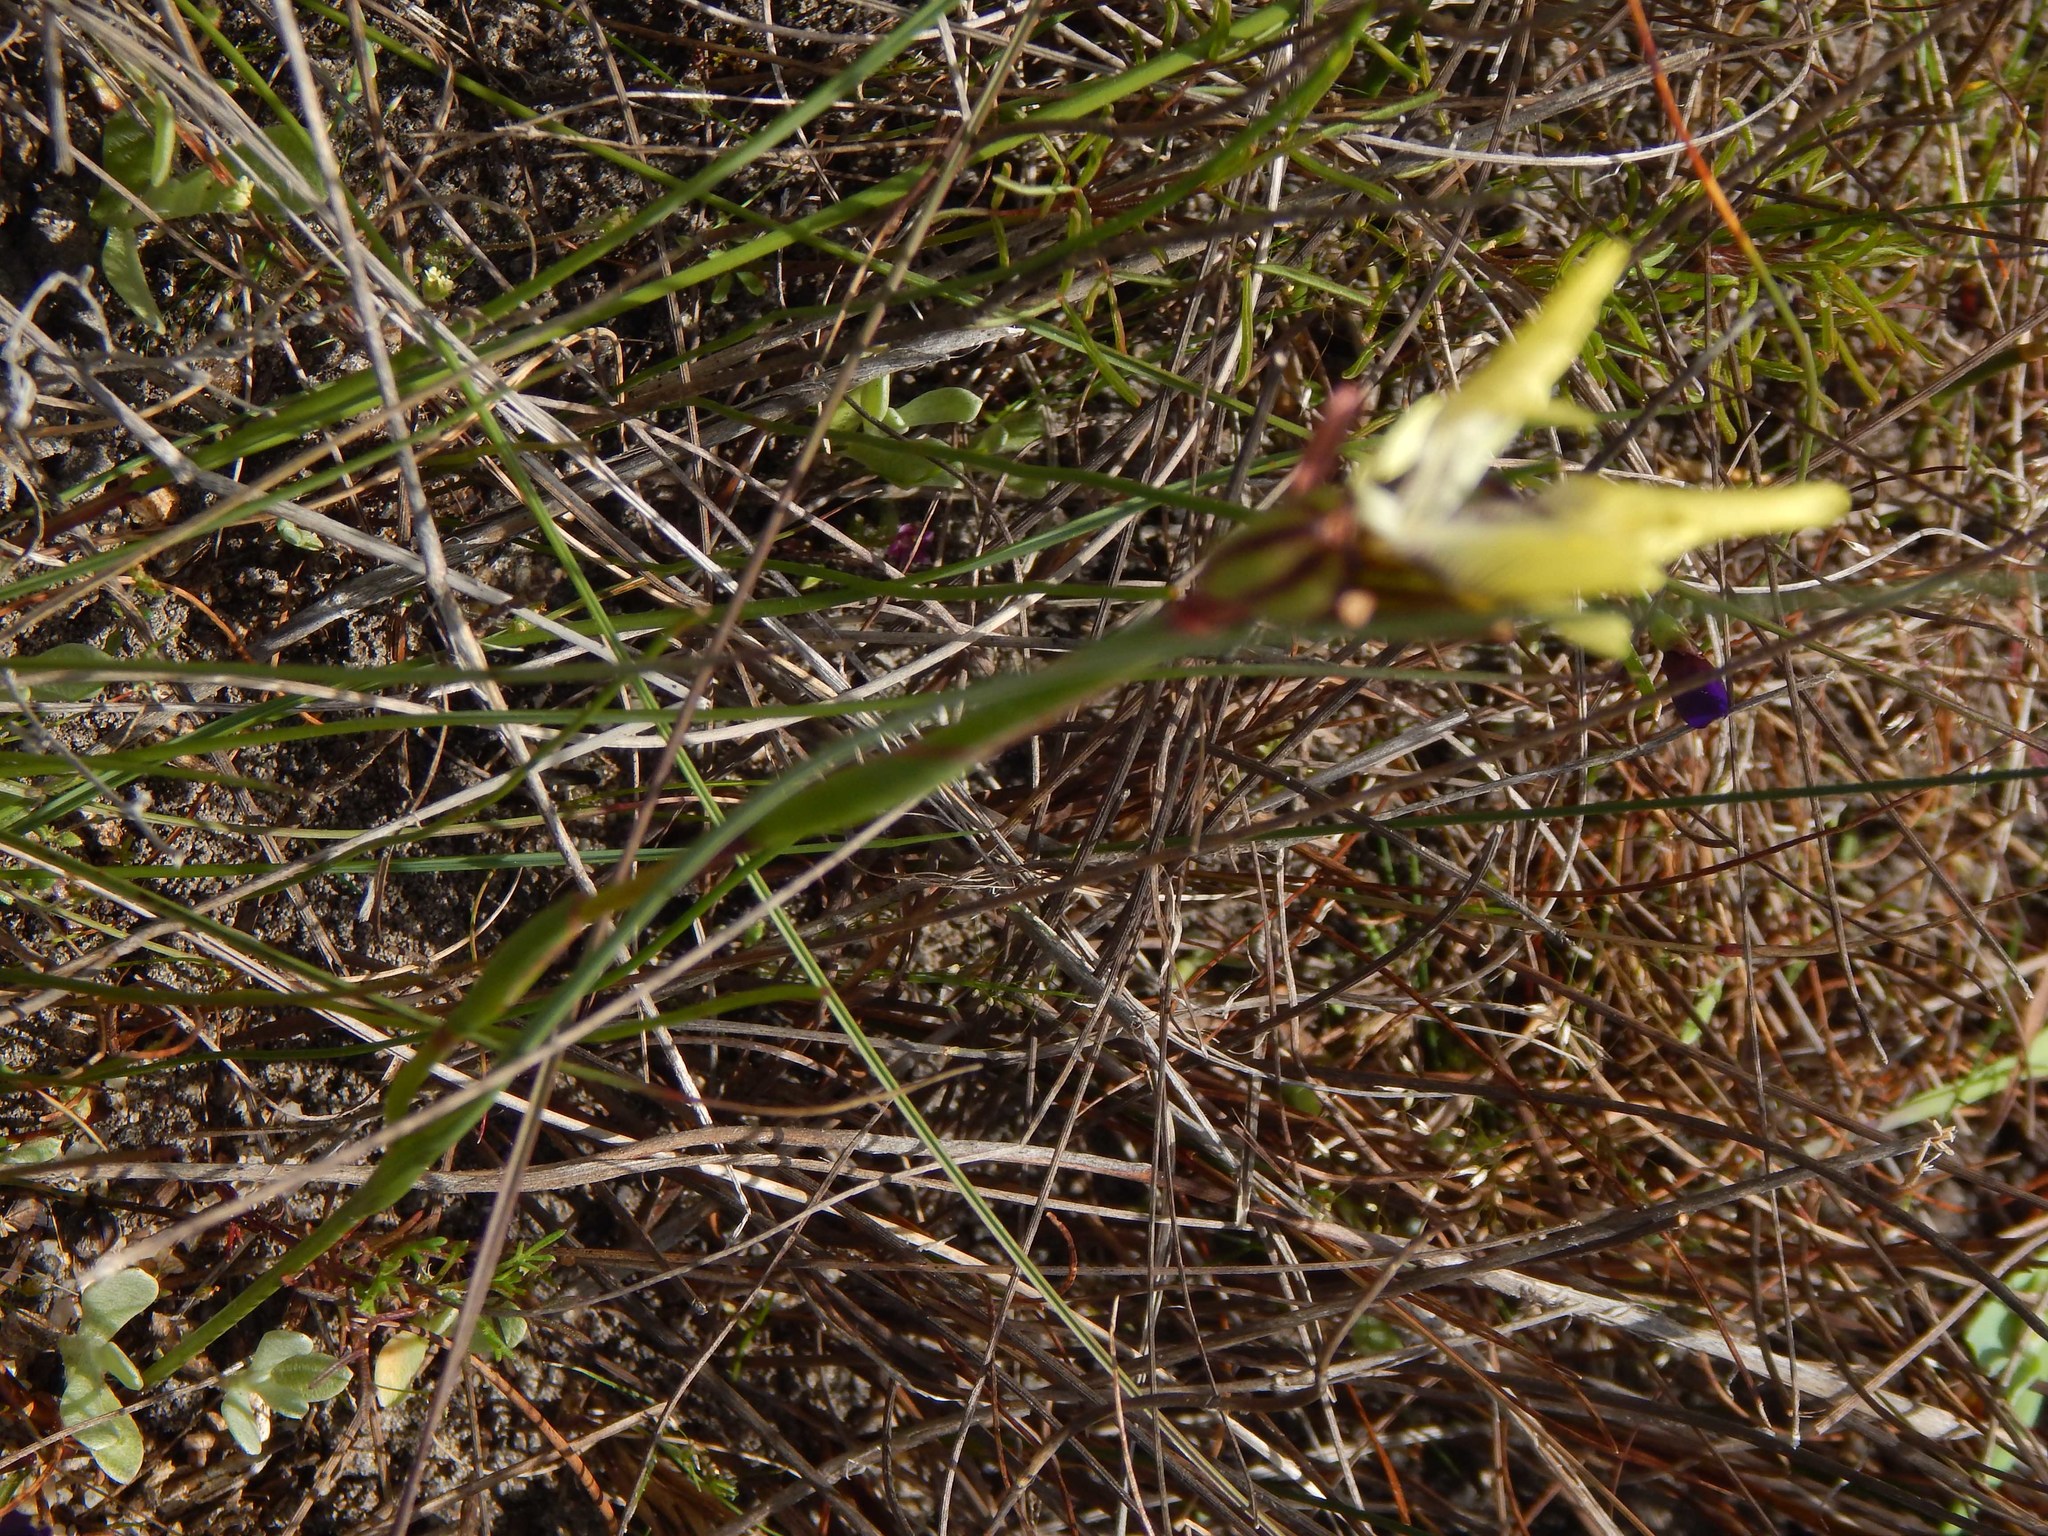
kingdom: Plantae
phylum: Tracheophyta
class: Liliopsida
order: Asparagales
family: Iridaceae
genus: Moraea
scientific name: Moraea bellendenii
